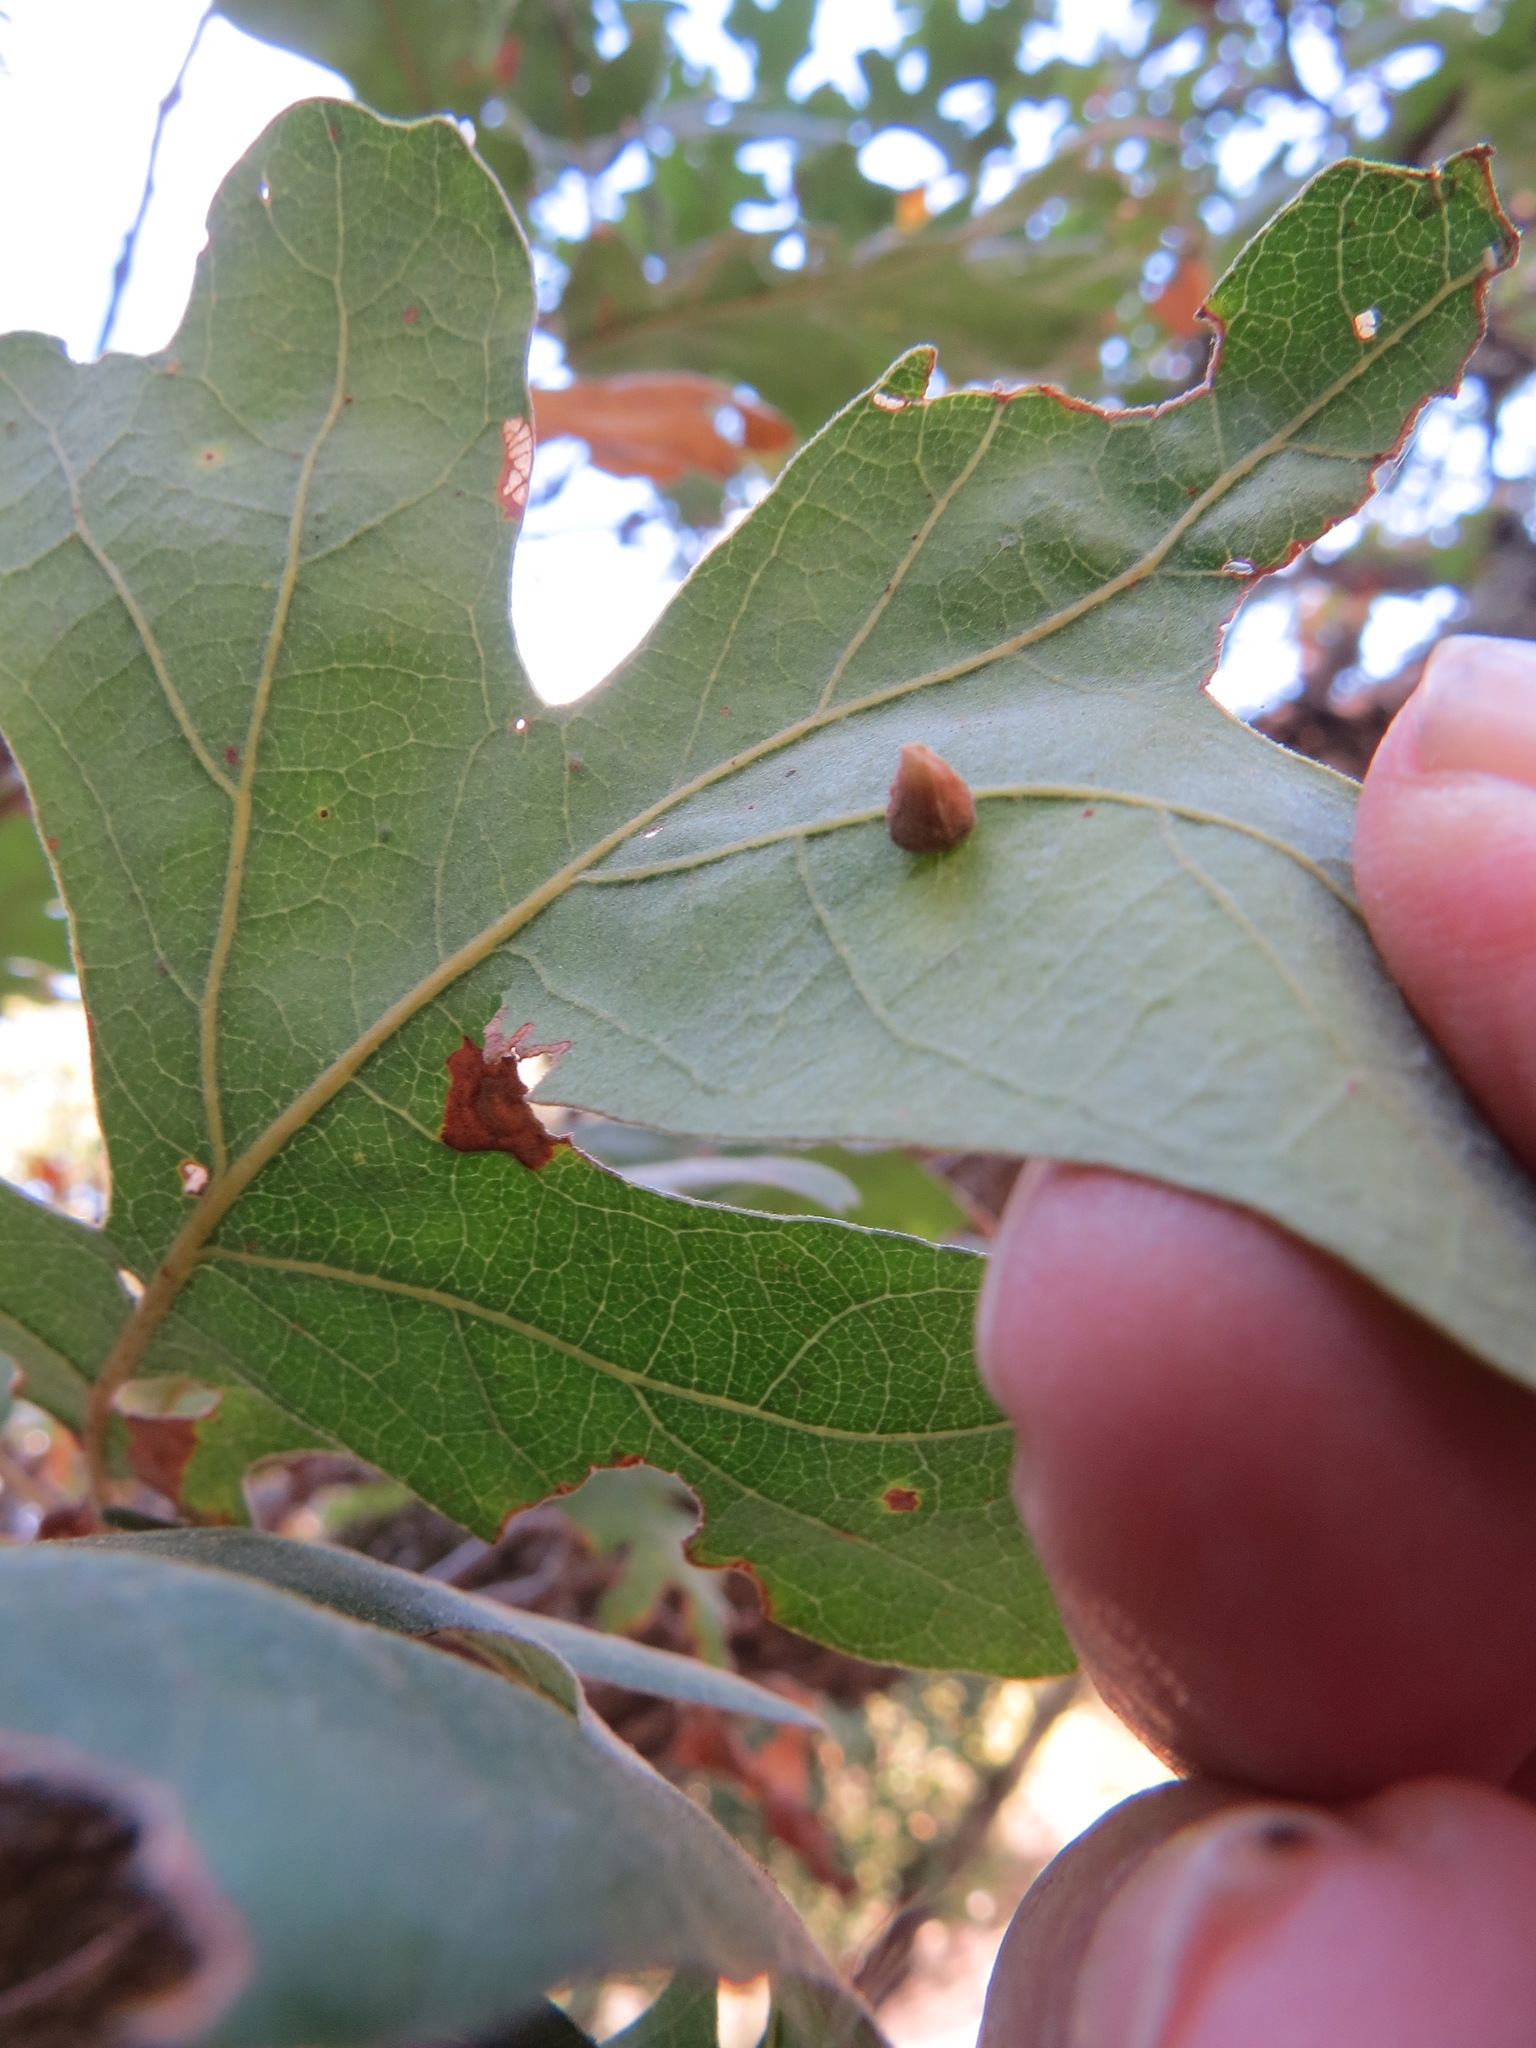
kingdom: Animalia
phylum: Arthropoda
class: Insecta
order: Hymenoptera
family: Cynipidae
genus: Andricus
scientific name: Andricus
